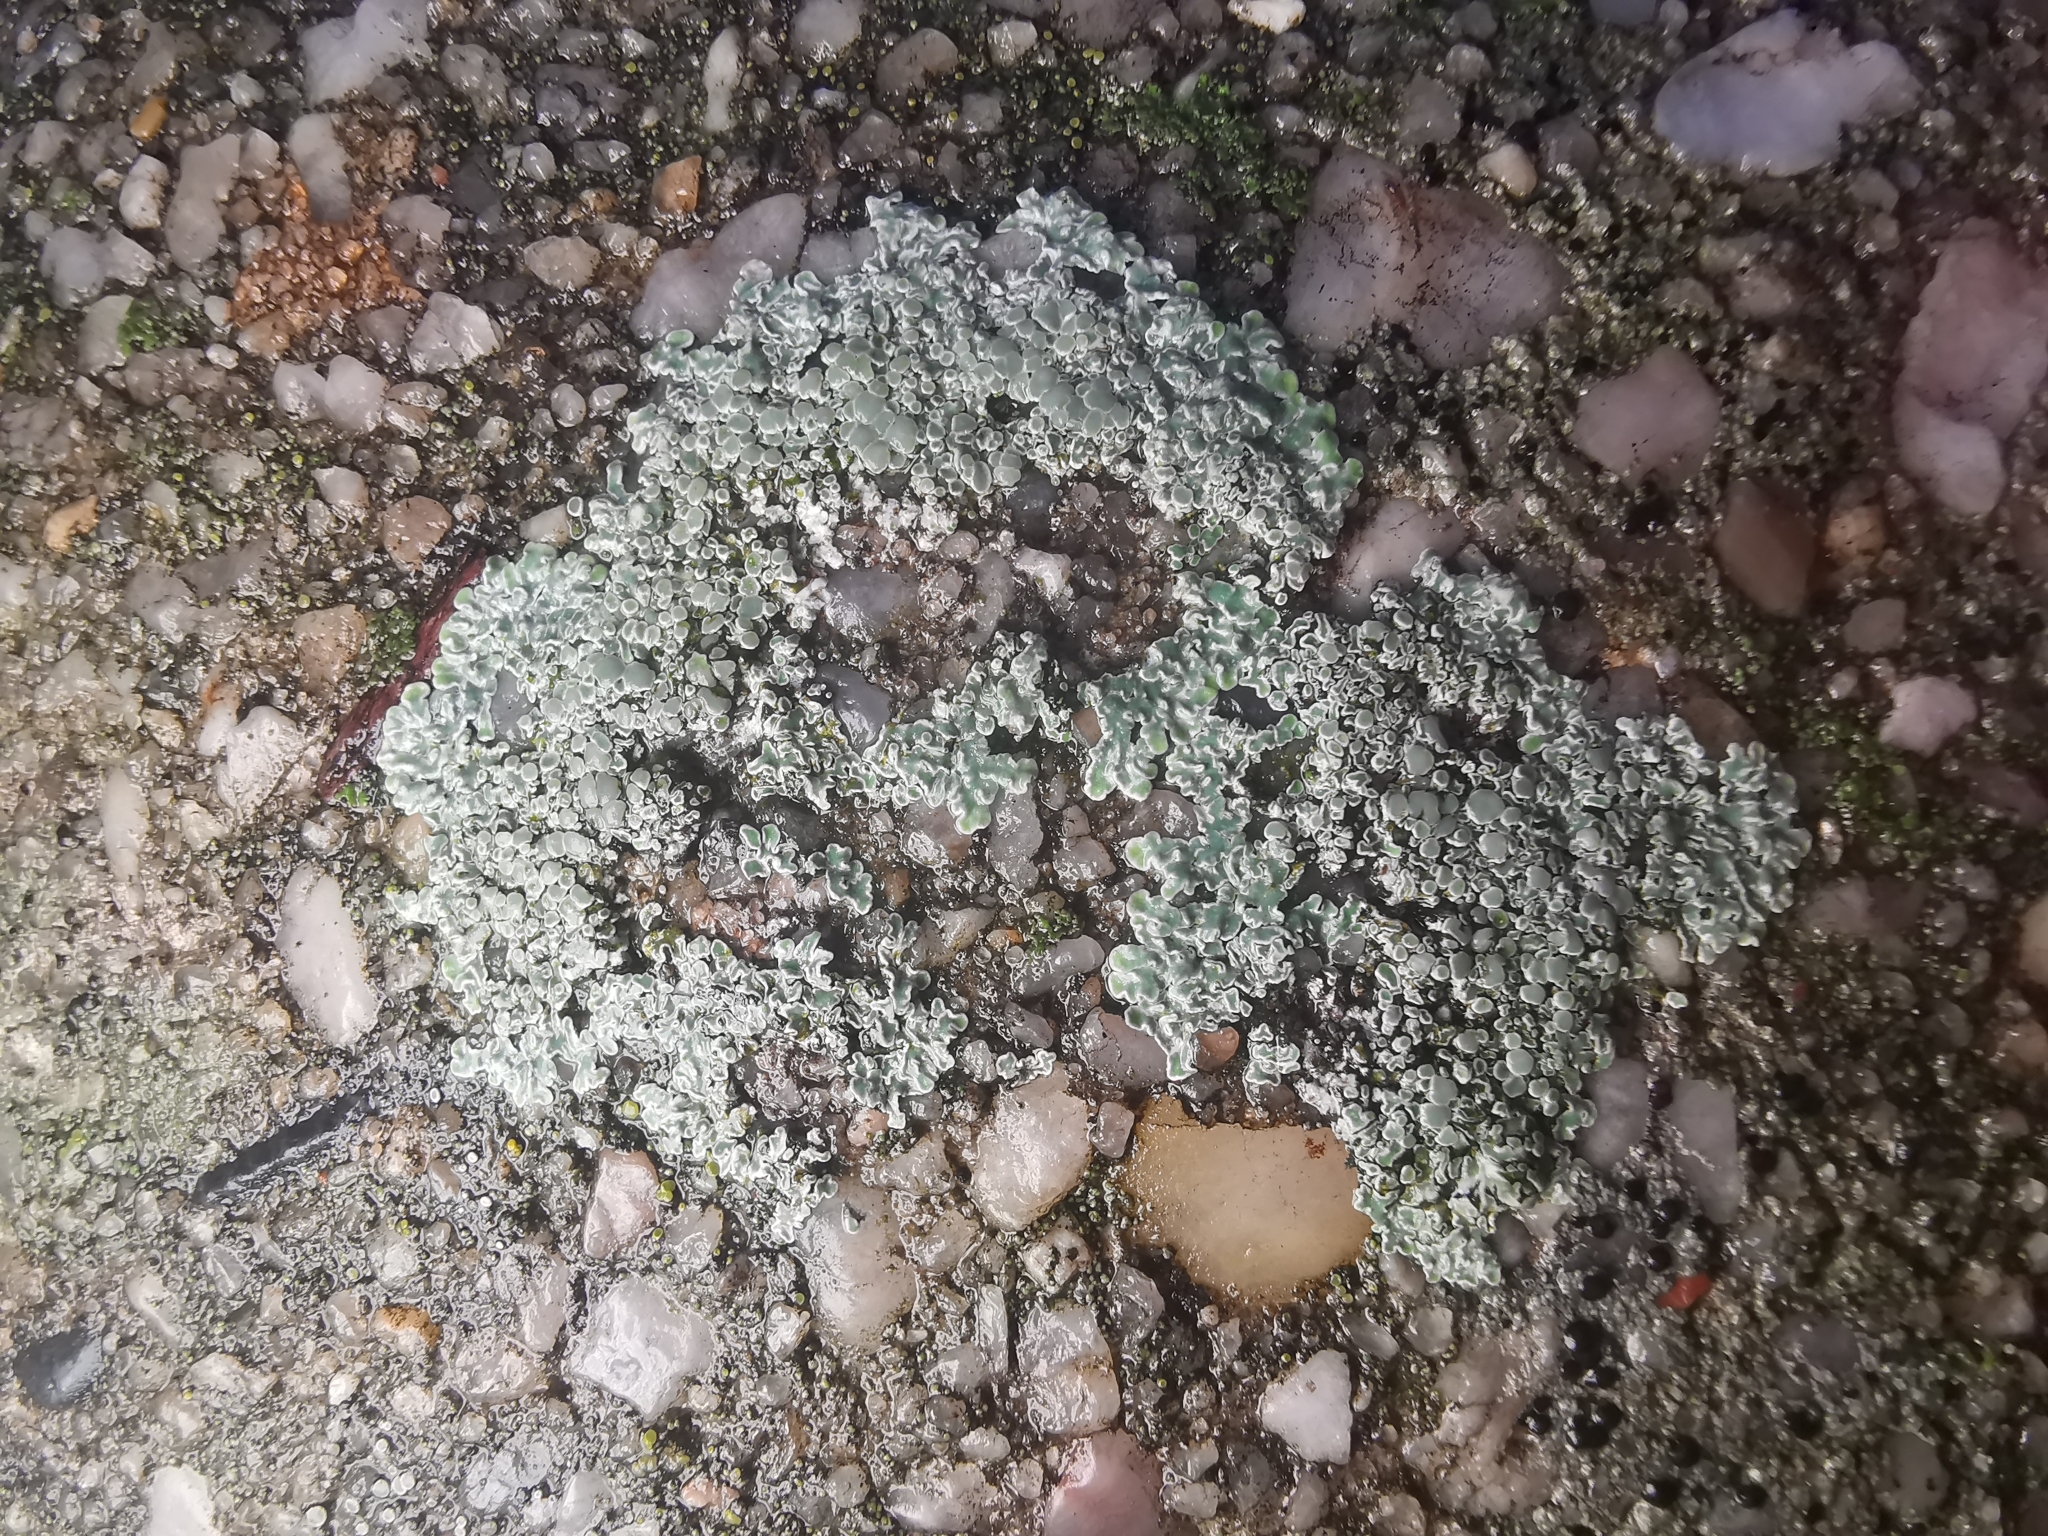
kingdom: Fungi
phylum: Ascomycota
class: Lecanoromycetes
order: Lecanorales
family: Lecanoraceae
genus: Protoparmeliopsis
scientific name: Protoparmeliopsis muralis
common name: Stonewall rim lichen
